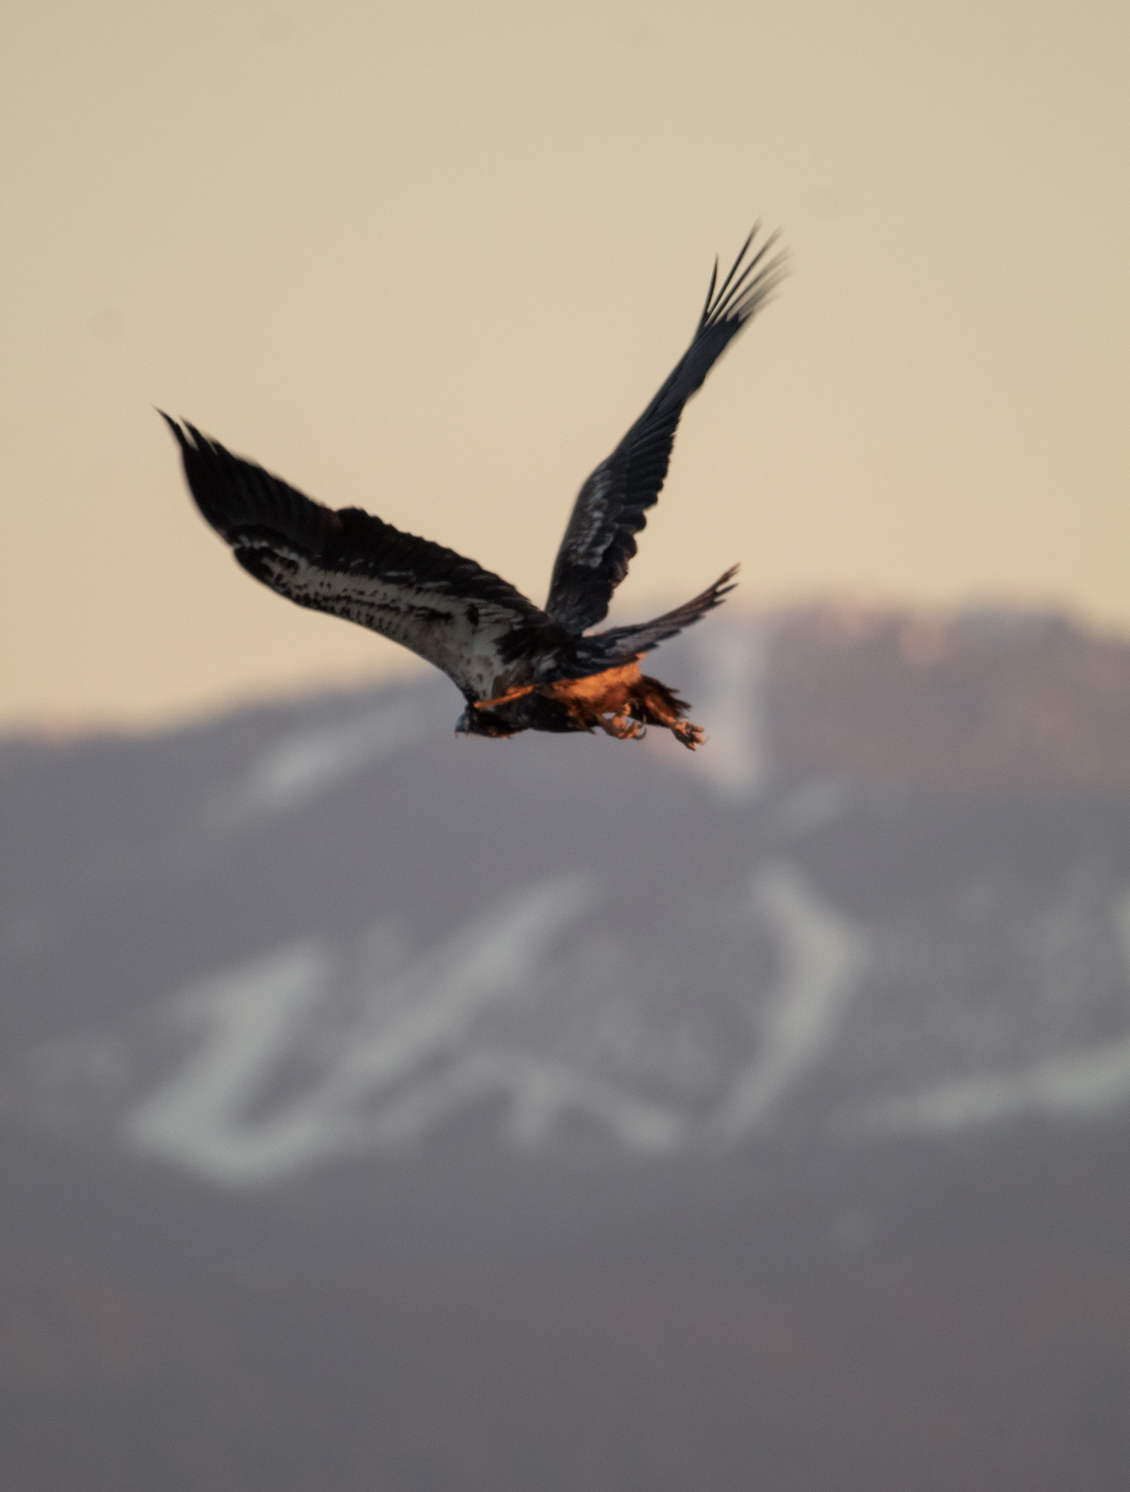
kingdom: Animalia
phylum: Chordata
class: Aves
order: Accipitriformes
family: Accipitridae
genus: Haliaeetus
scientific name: Haliaeetus leucocephalus
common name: Bald eagle
